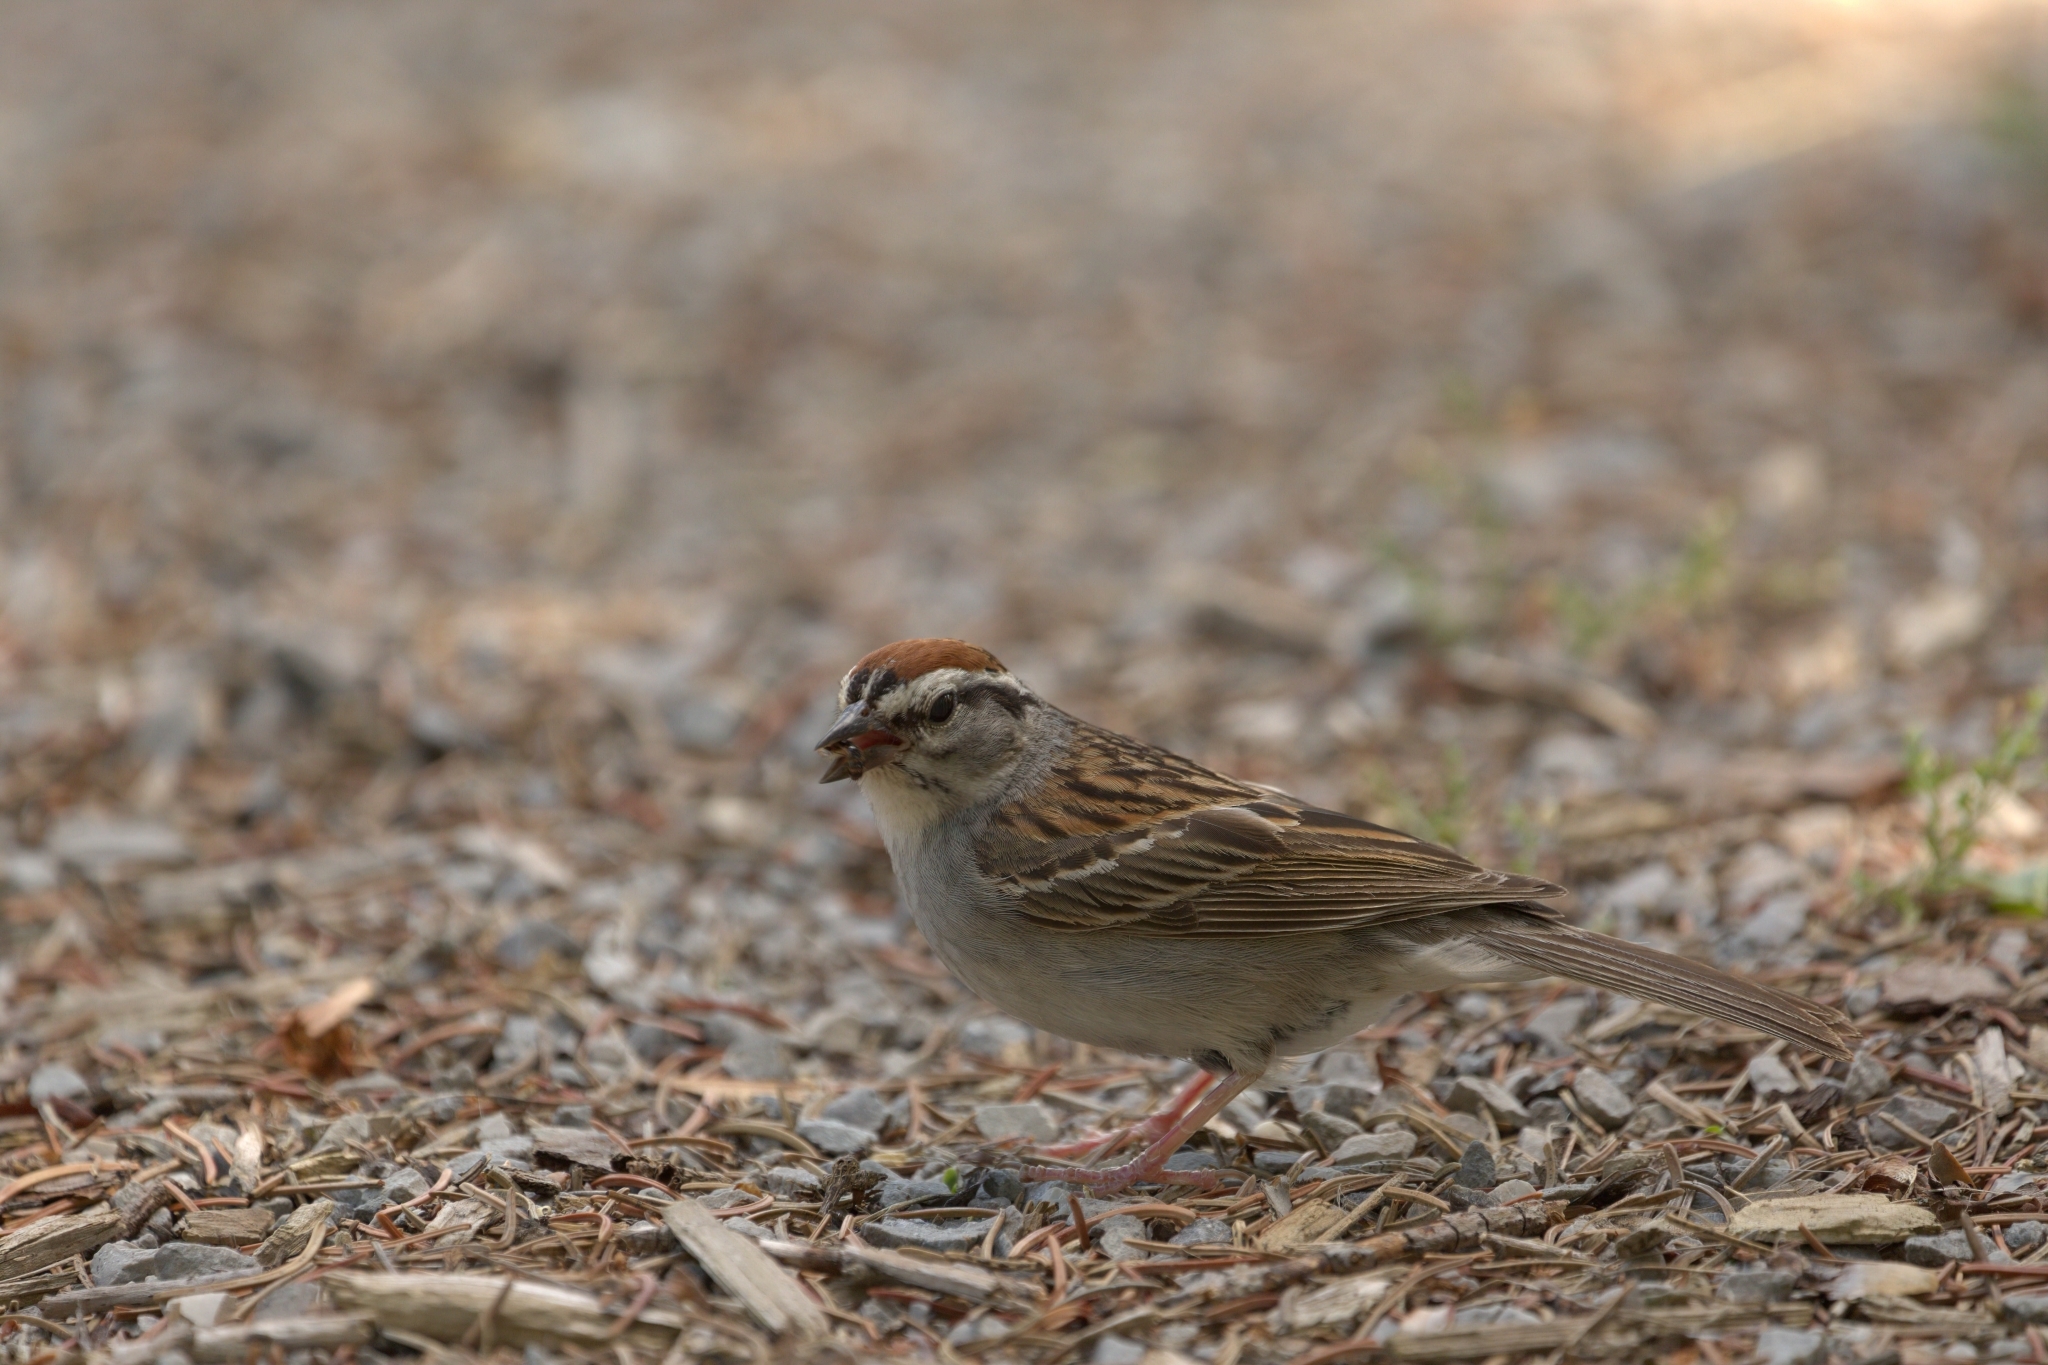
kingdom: Animalia
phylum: Chordata
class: Aves
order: Passeriformes
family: Passerellidae
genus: Spizella
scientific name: Spizella passerina
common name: Chipping sparrow
